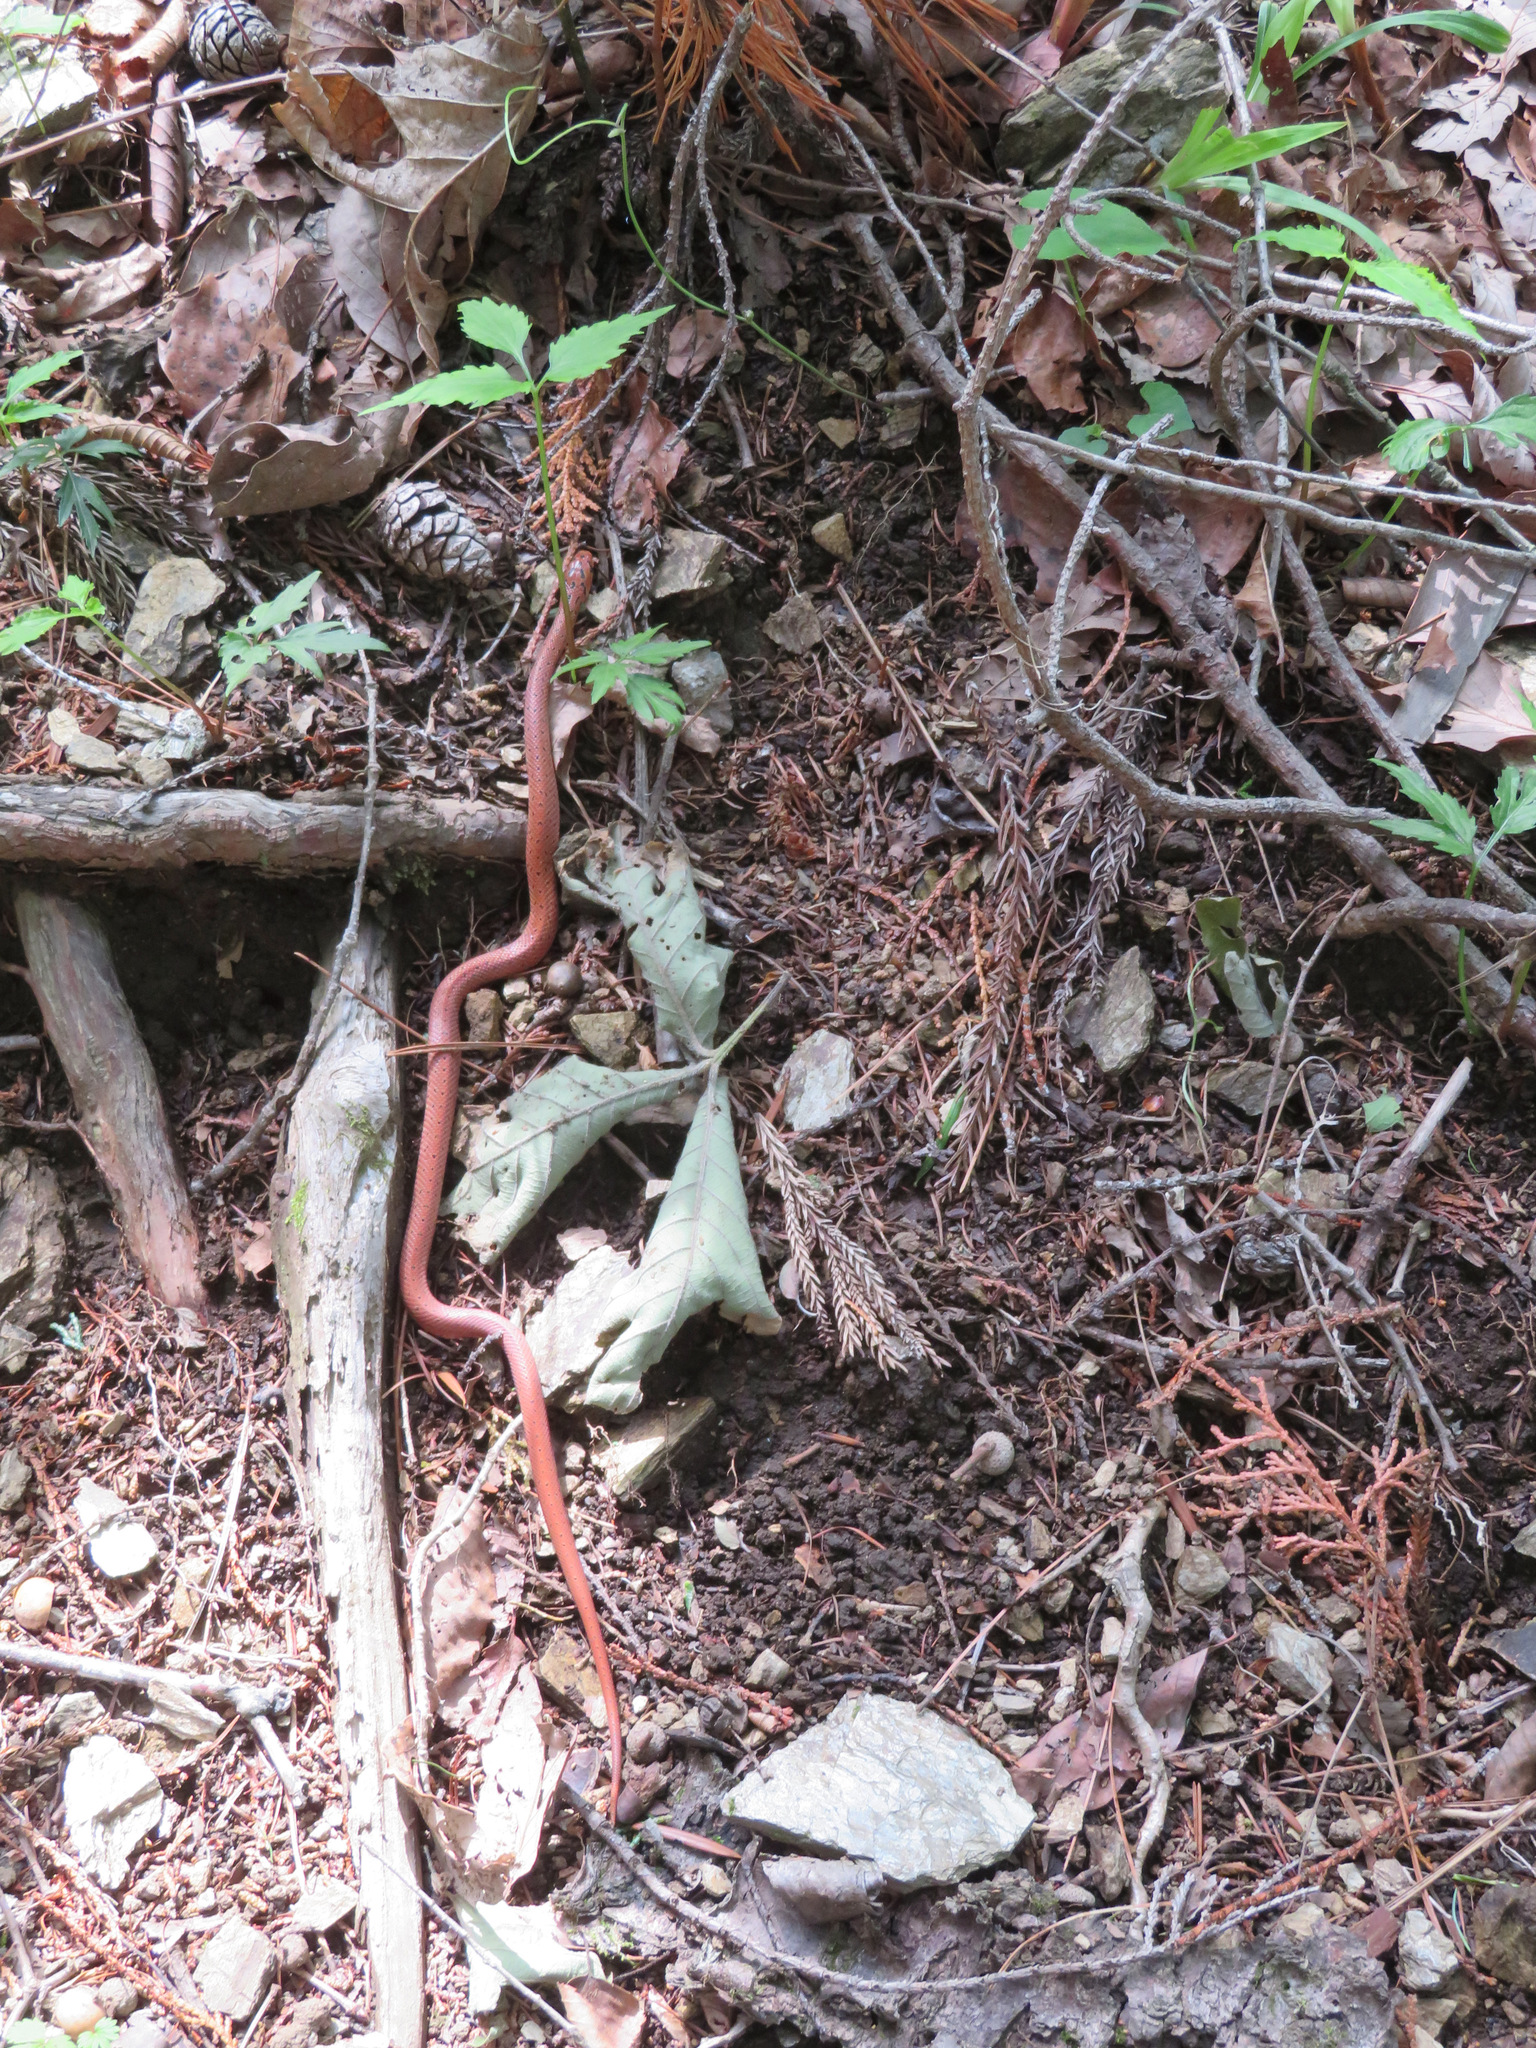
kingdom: Animalia
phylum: Chordata
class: Squamata
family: Colubridae
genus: Euprepiophis
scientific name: Euprepiophis conspicillata
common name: Burrowing ratsnake
